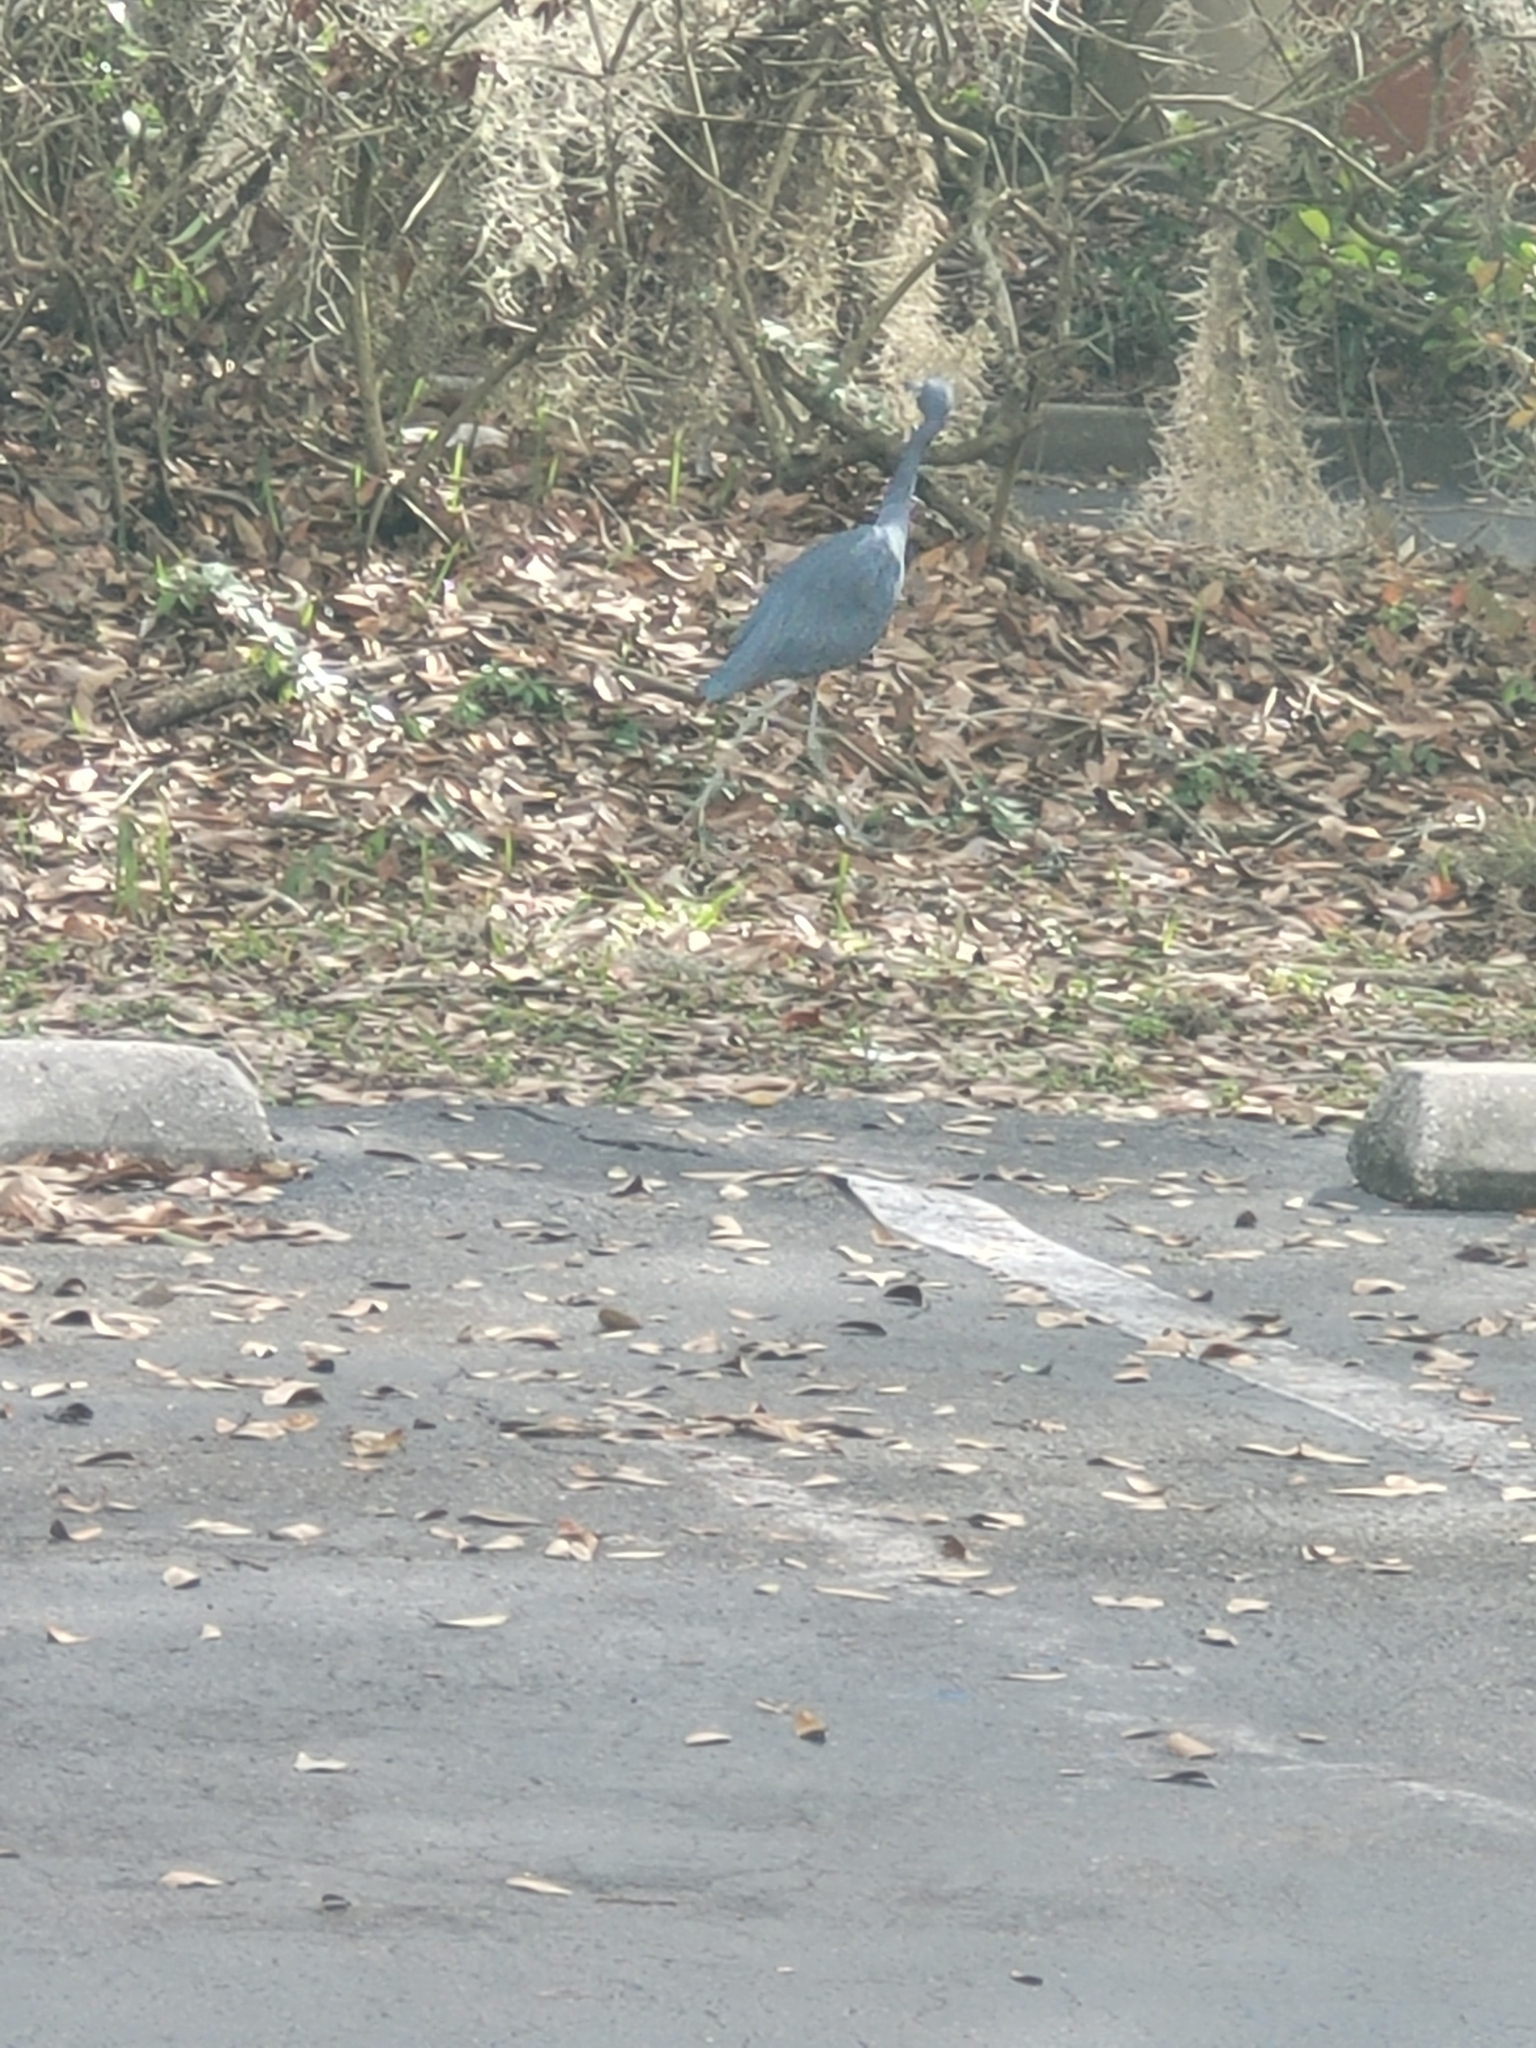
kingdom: Animalia
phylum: Chordata
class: Aves
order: Pelecaniformes
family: Ardeidae
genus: Egretta
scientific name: Egretta caerulea
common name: Little blue heron
